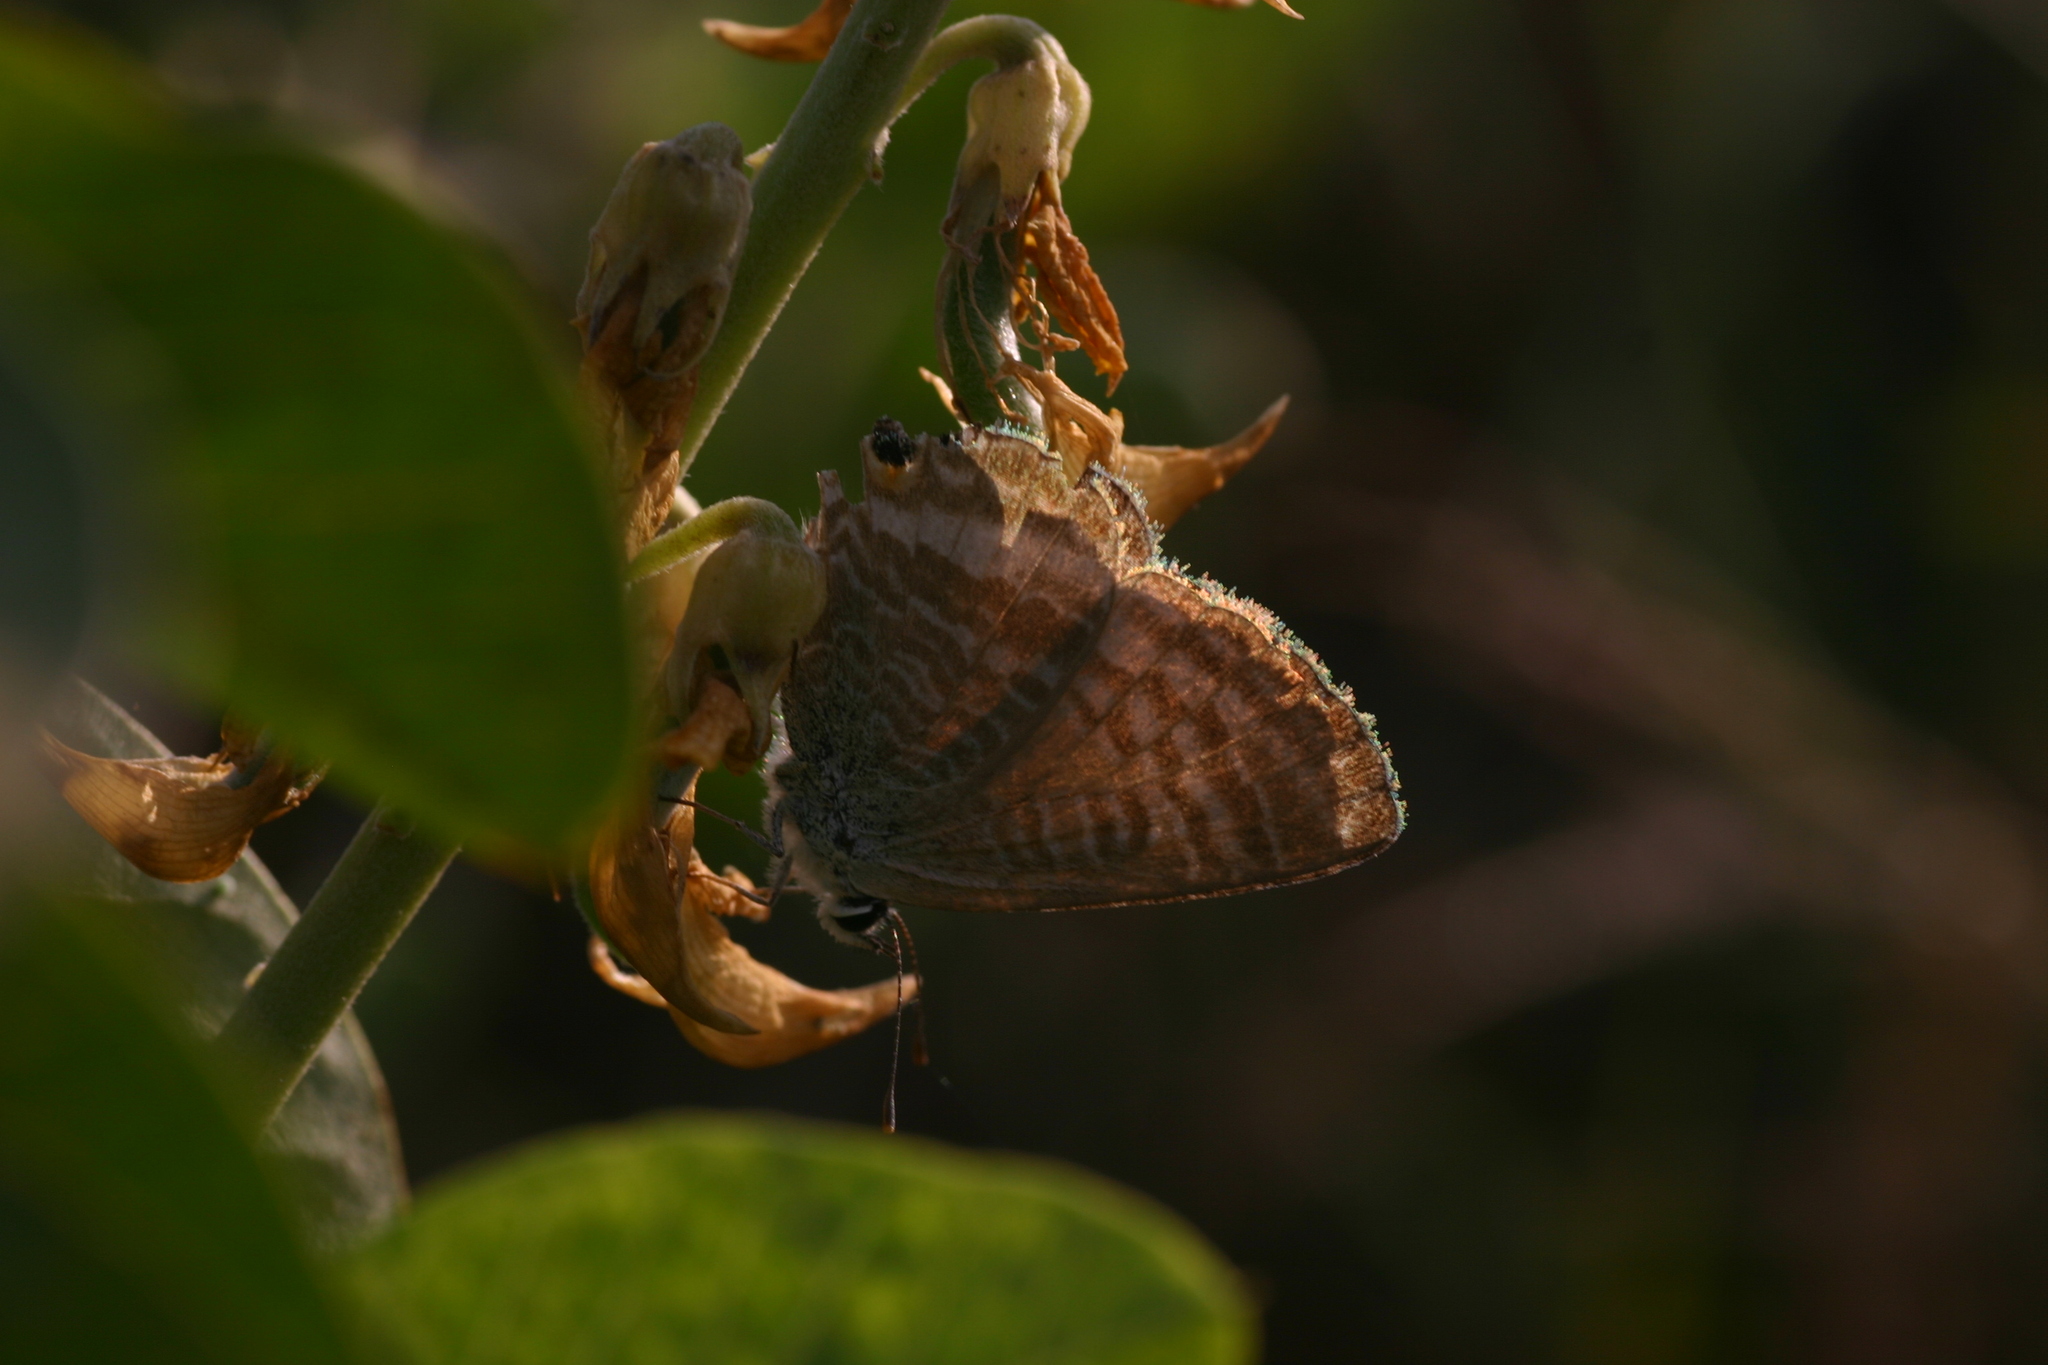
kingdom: Animalia
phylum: Arthropoda
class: Insecta
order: Lepidoptera
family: Lycaenidae
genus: Lampides
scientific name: Lampides boeticus
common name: Long-tailed blue
